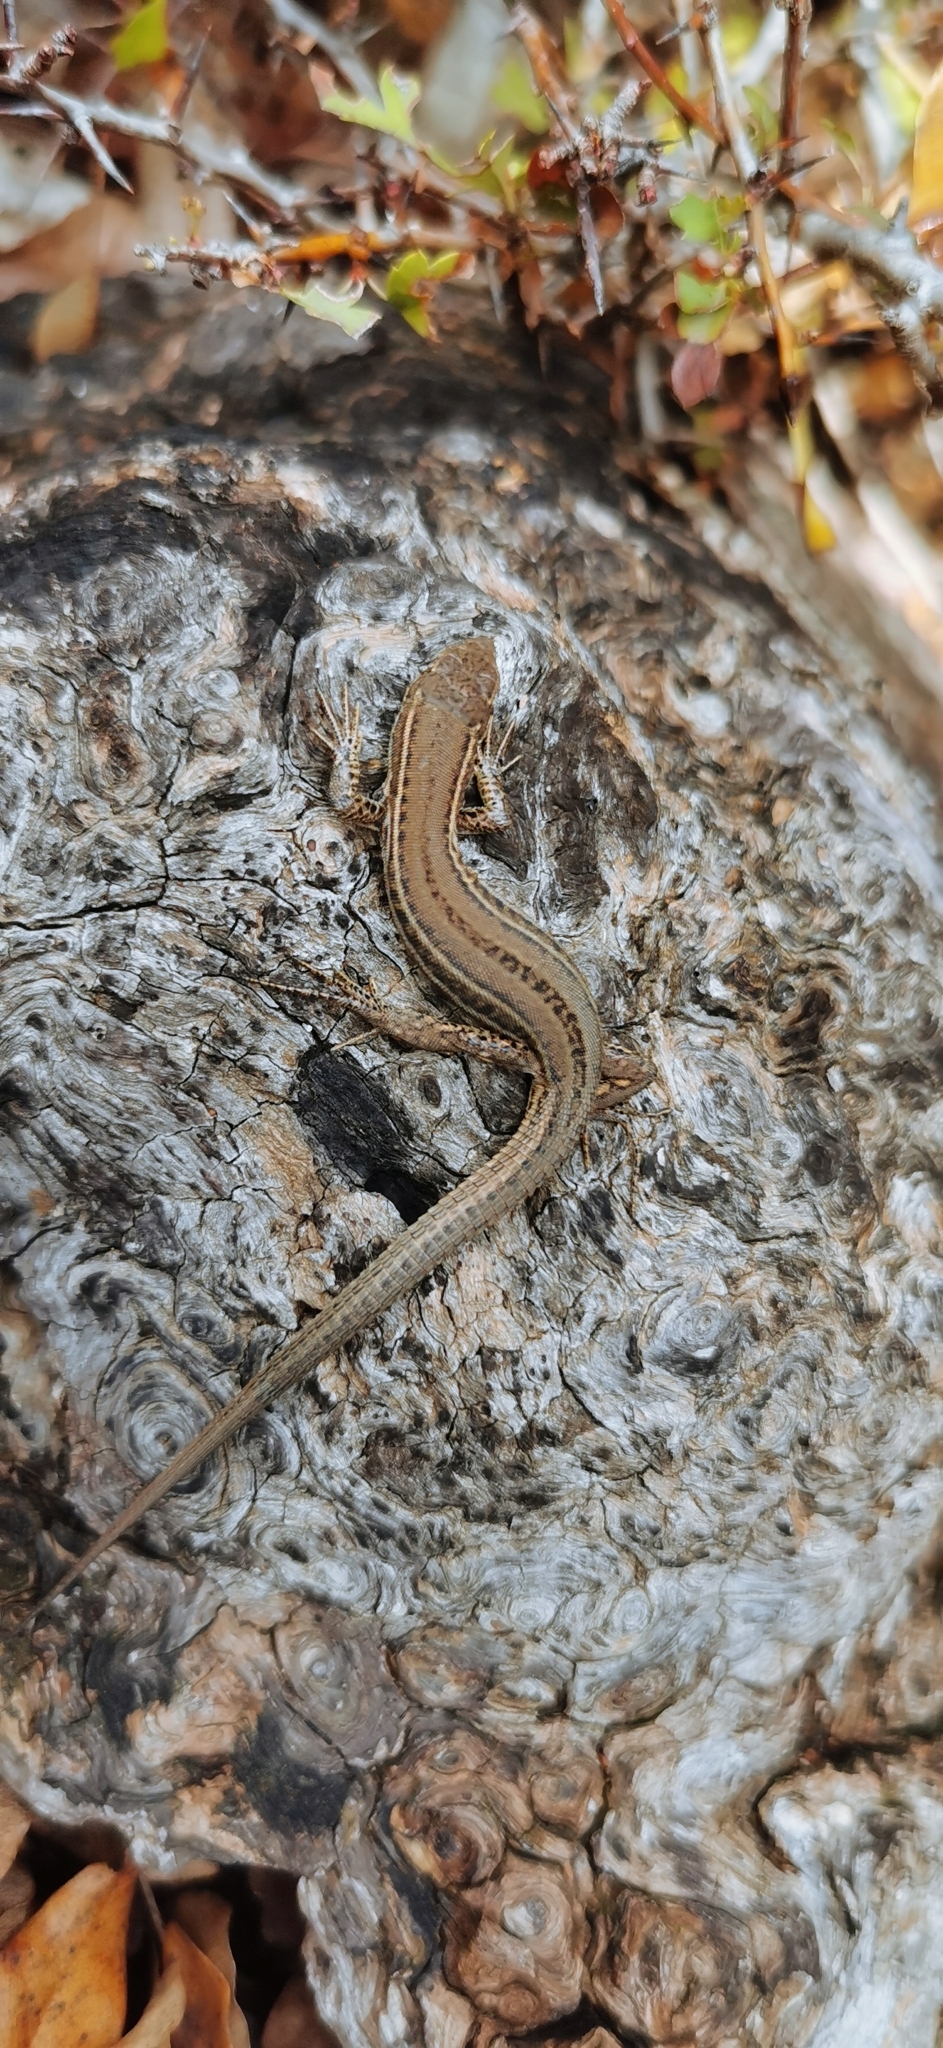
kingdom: Animalia
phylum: Chordata
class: Squamata
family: Lacertidae
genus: Podarcis
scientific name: Podarcis melisellensis
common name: Dalmatian wall lizard
